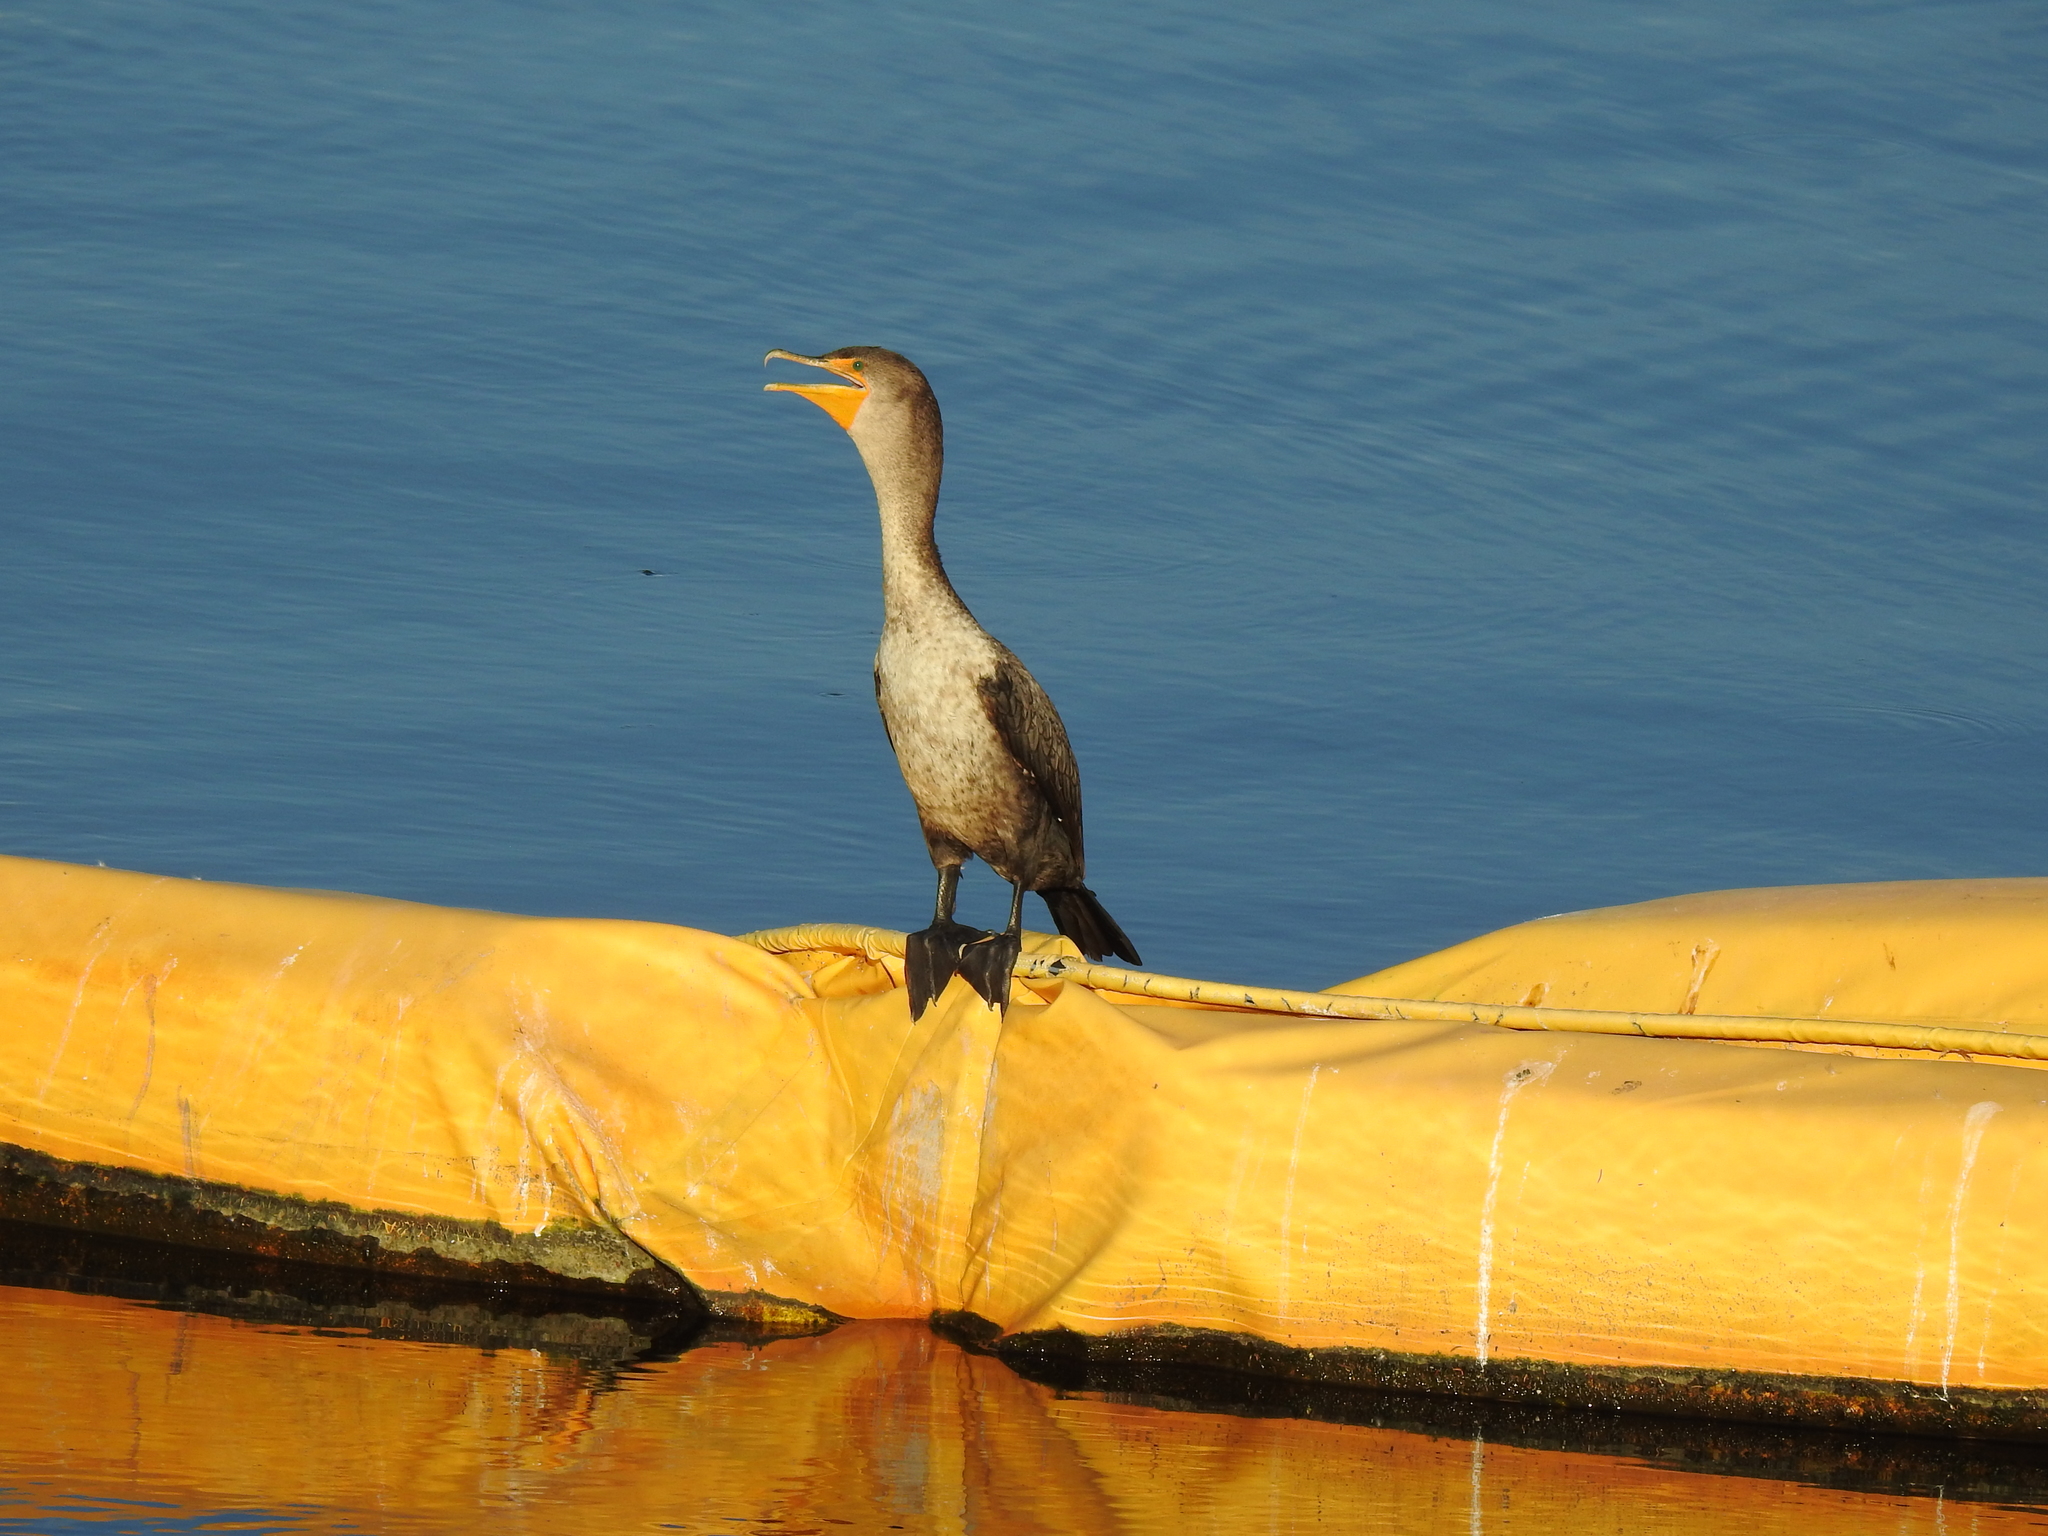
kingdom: Animalia
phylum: Chordata
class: Aves
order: Suliformes
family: Phalacrocoracidae
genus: Phalacrocorax
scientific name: Phalacrocorax auritus
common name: Double-crested cormorant
